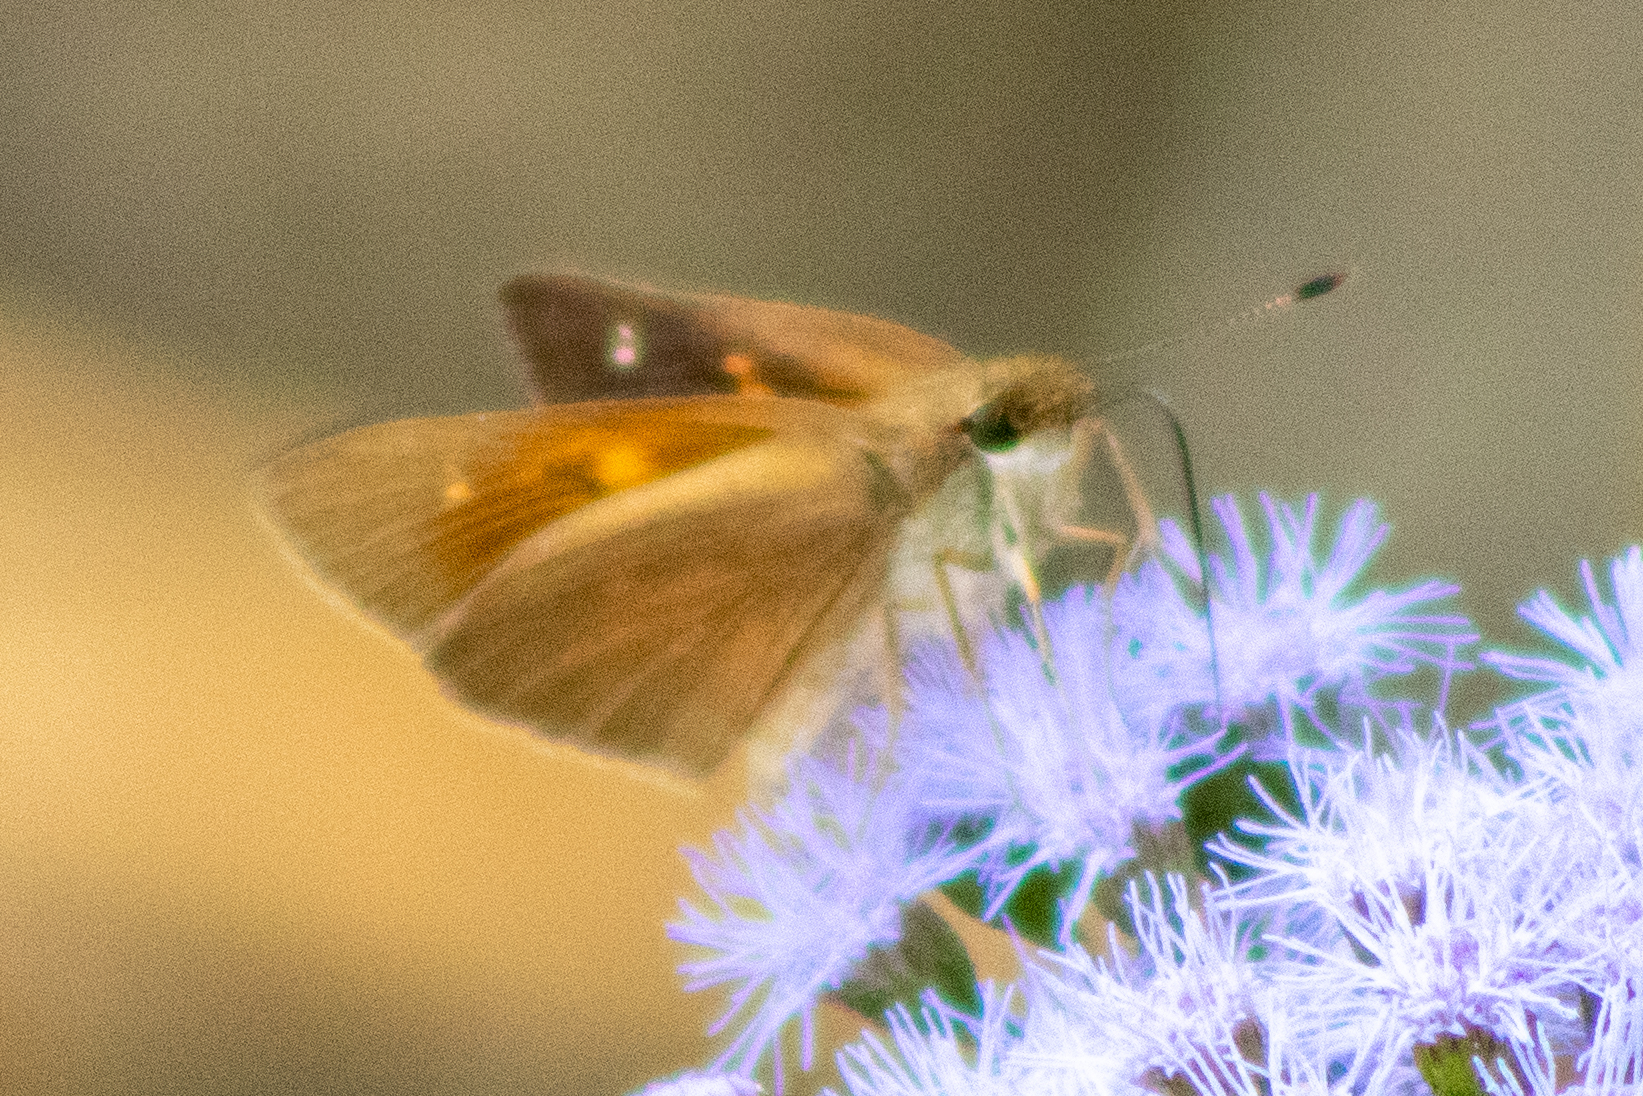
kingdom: Animalia
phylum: Arthropoda
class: Insecta
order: Lepidoptera
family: Hesperiidae
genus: Poanes
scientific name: Poanes viator
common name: Broad-winged skipper
